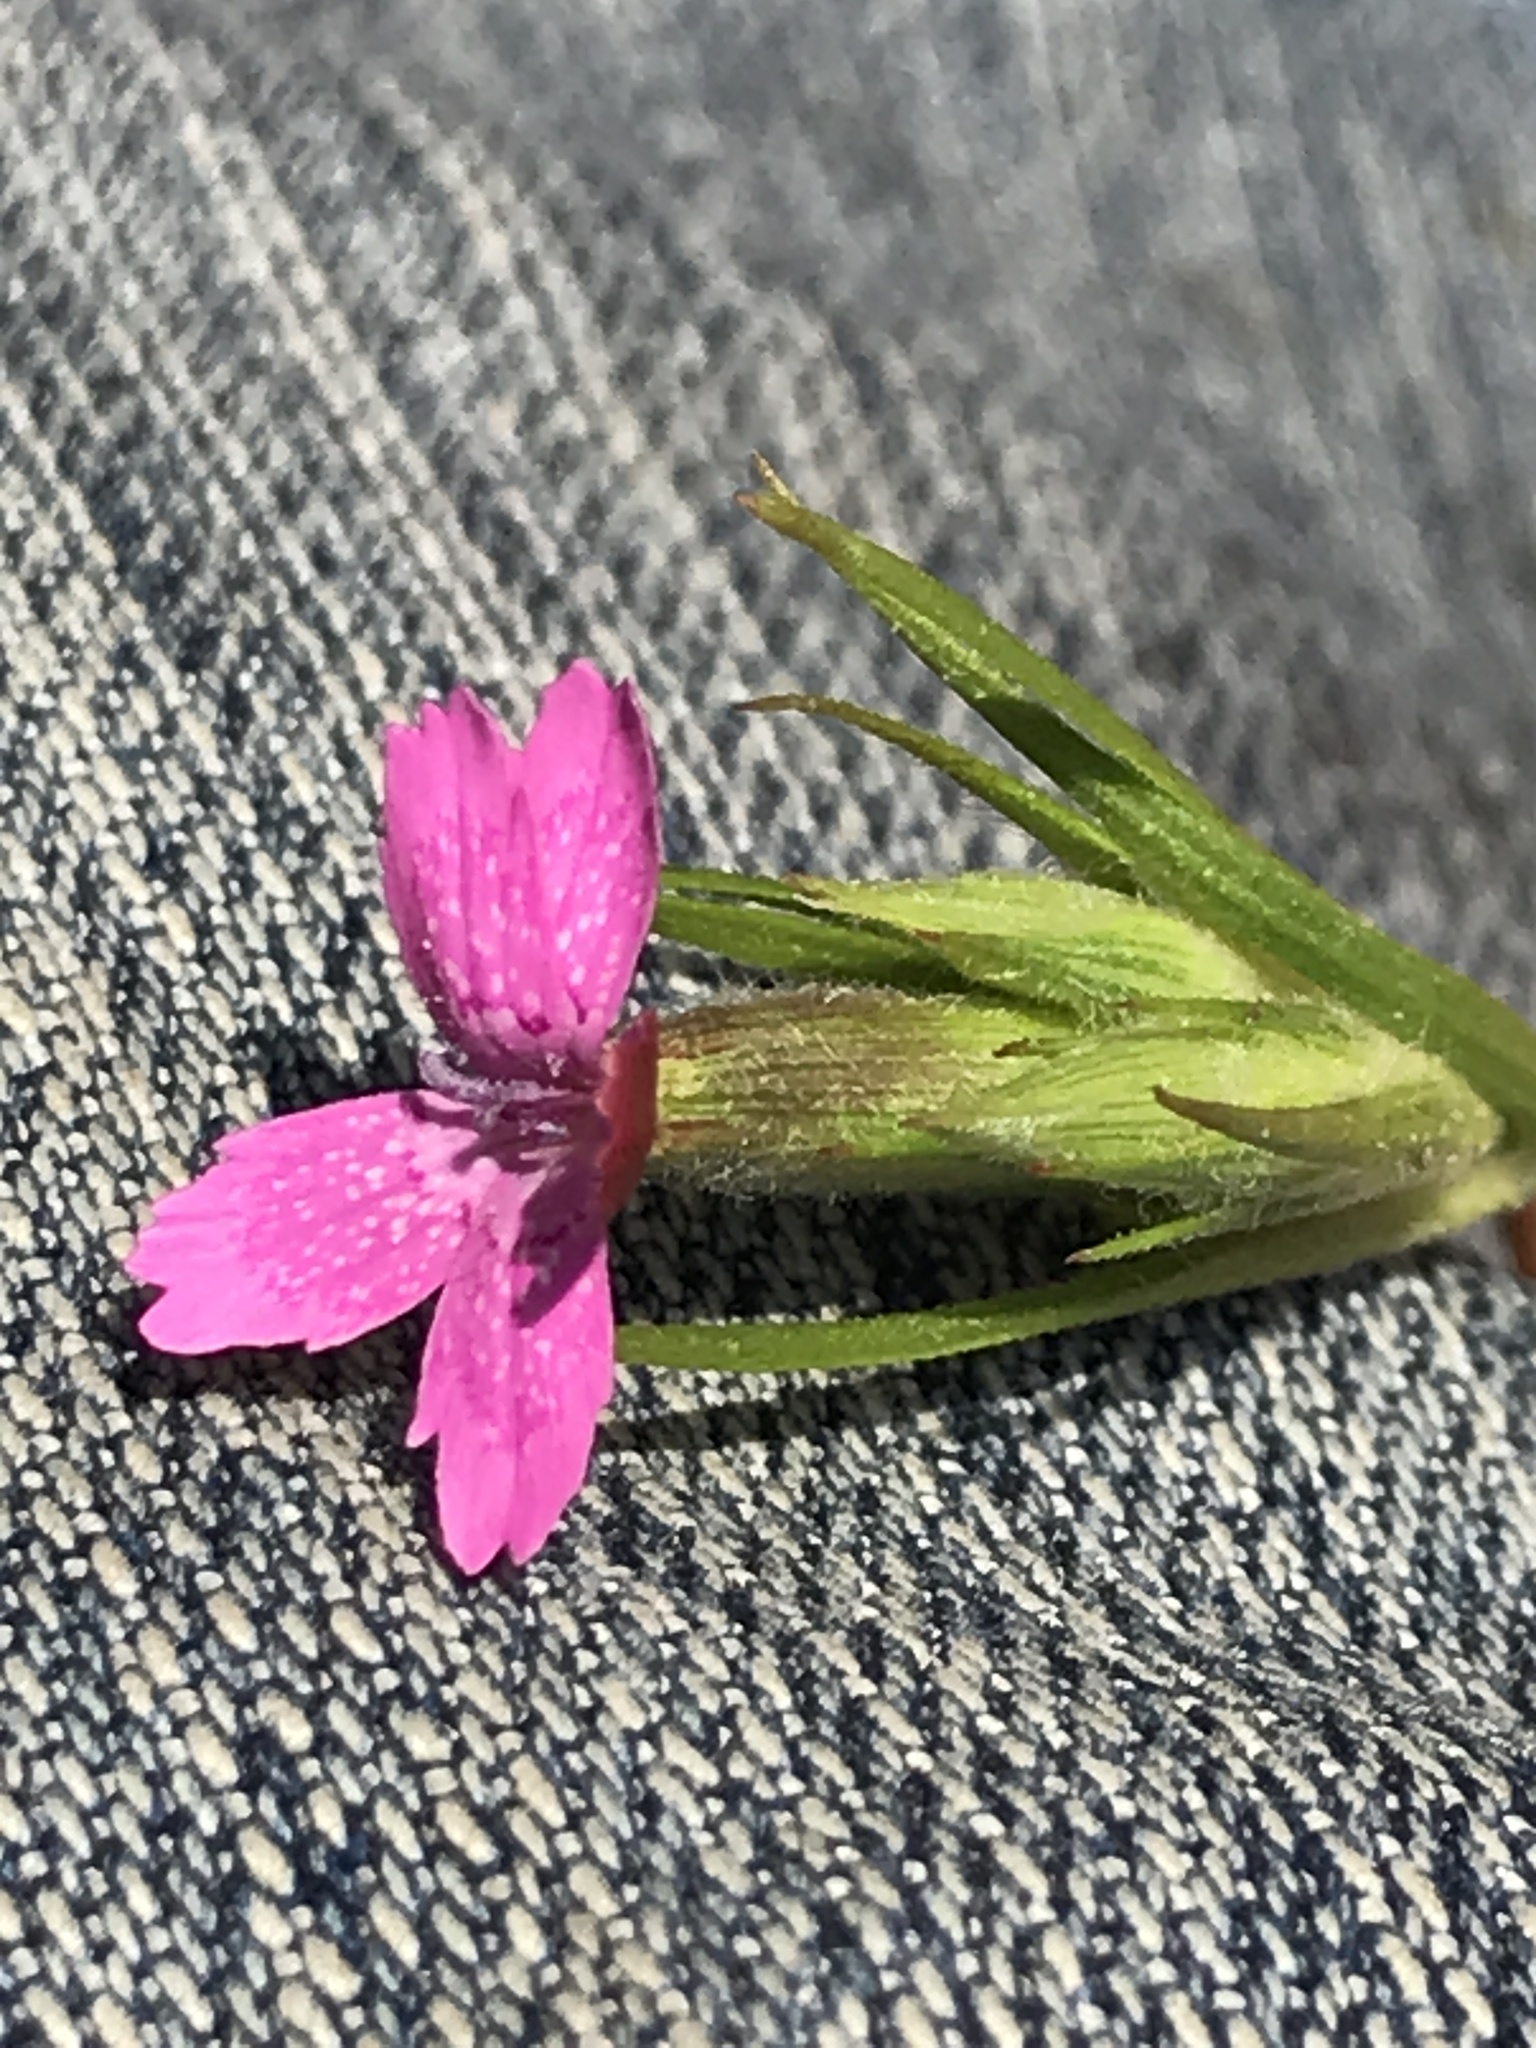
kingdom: Plantae
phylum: Tracheophyta
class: Magnoliopsida
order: Caryophyllales
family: Caryophyllaceae
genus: Dianthus
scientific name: Dianthus armeria
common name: Deptford pink
